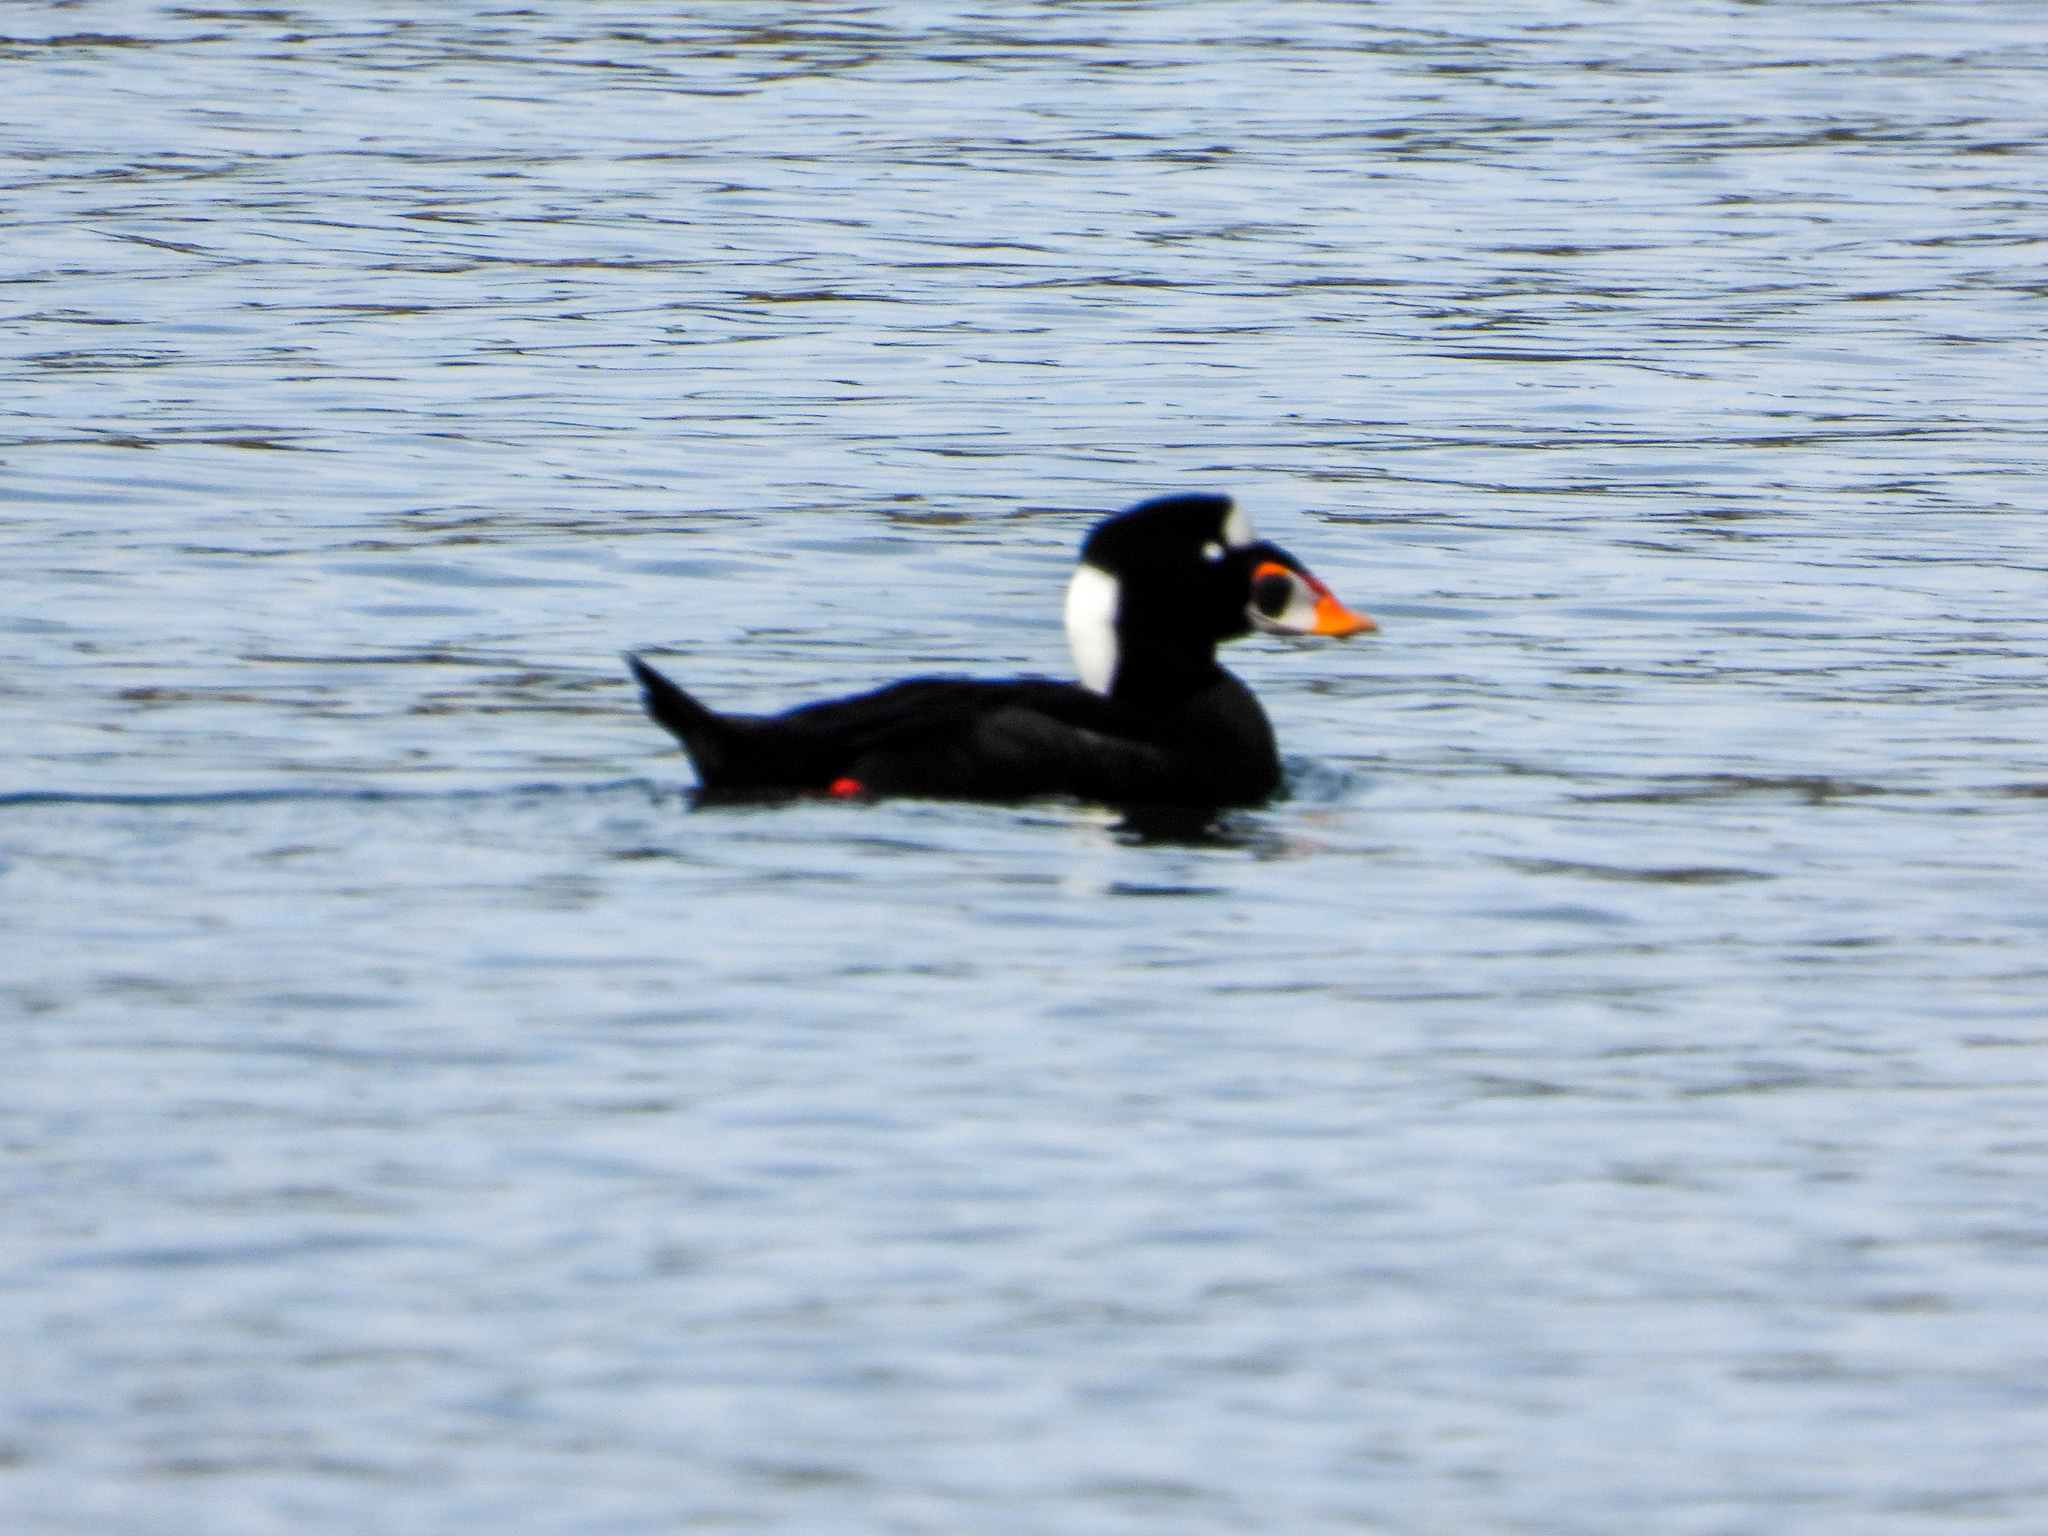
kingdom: Animalia
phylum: Chordata
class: Aves
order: Anseriformes
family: Anatidae
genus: Melanitta
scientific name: Melanitta perspicillata
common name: Surf scoter
